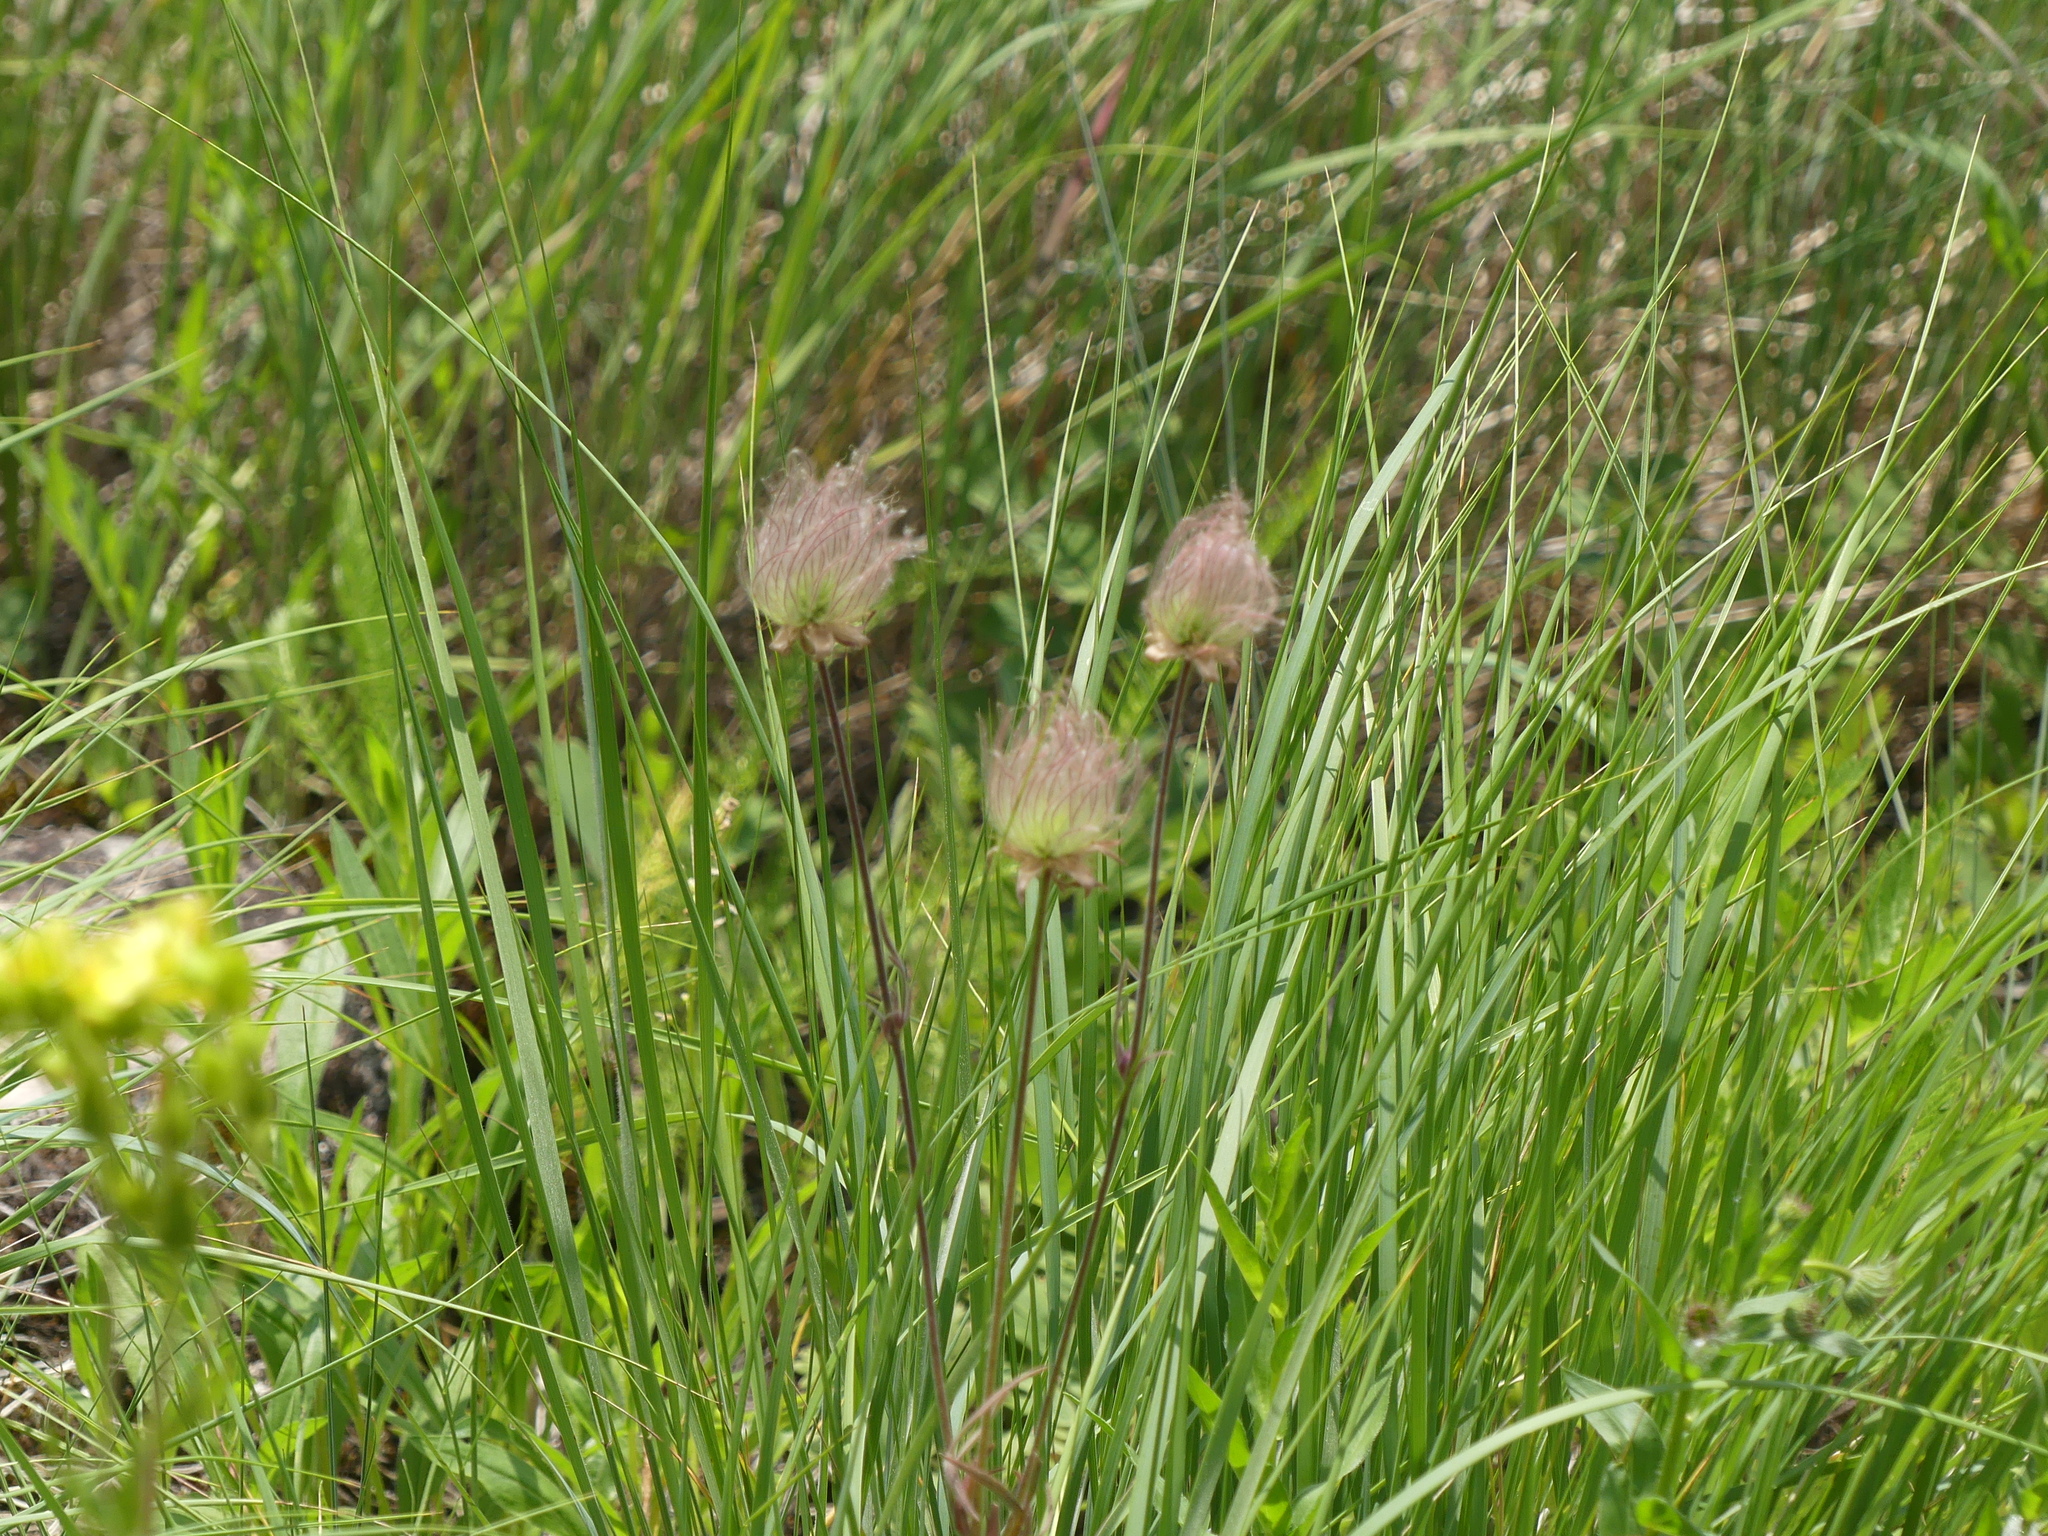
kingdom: Plantae
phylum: Tracheophyta
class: Magnoliopsida
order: Rosales
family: Rosaceae
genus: Geum
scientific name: Geum triflorum
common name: Old man's whiskers
